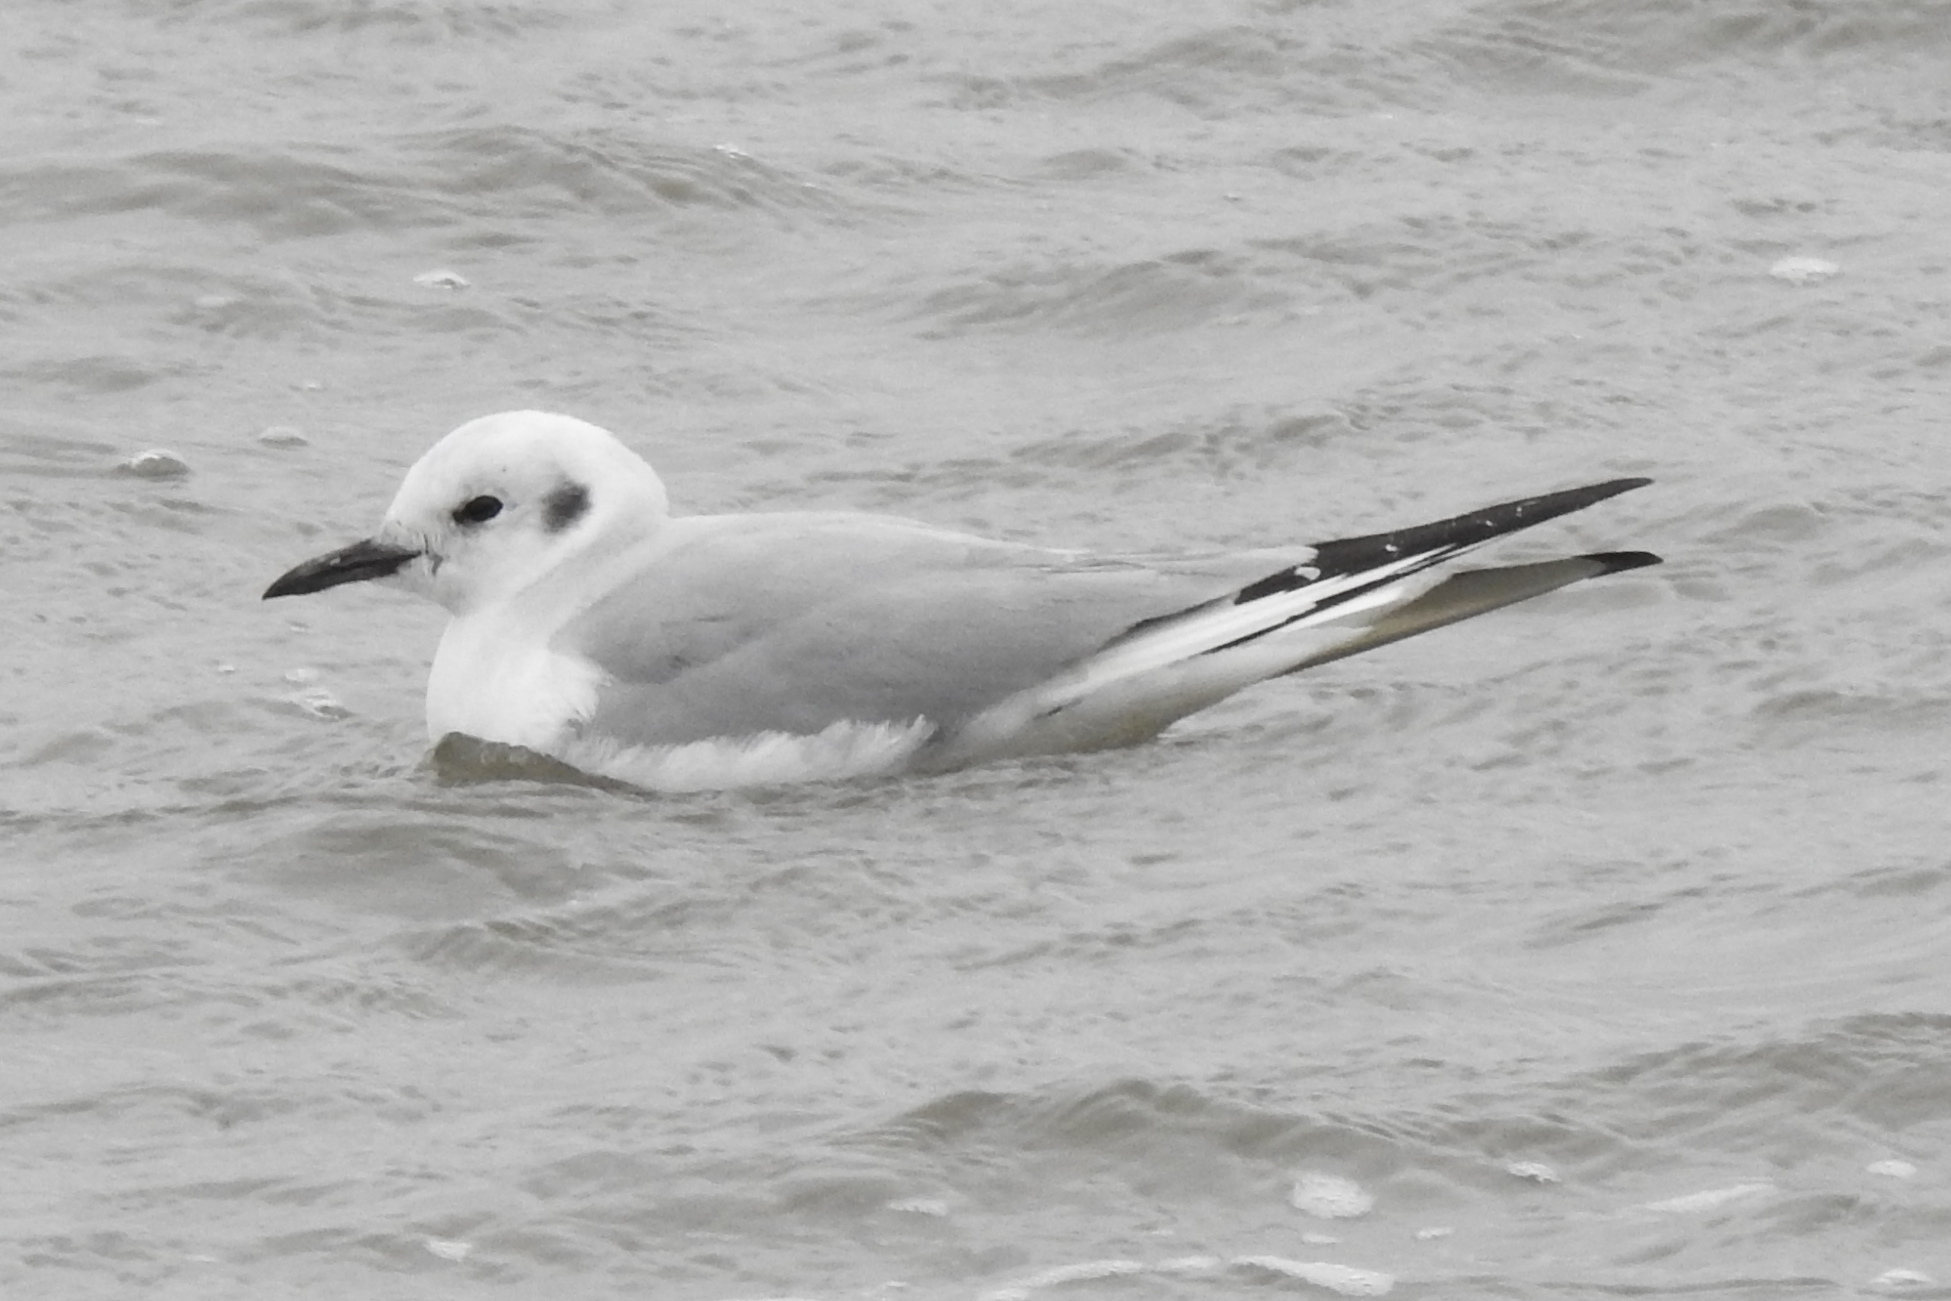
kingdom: Animalia
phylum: Chordata
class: Aves
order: Charadriiformes
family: Laridae
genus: Chroicocephalus
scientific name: Chroicocephalus philadelphia
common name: Bonaparte's gull
